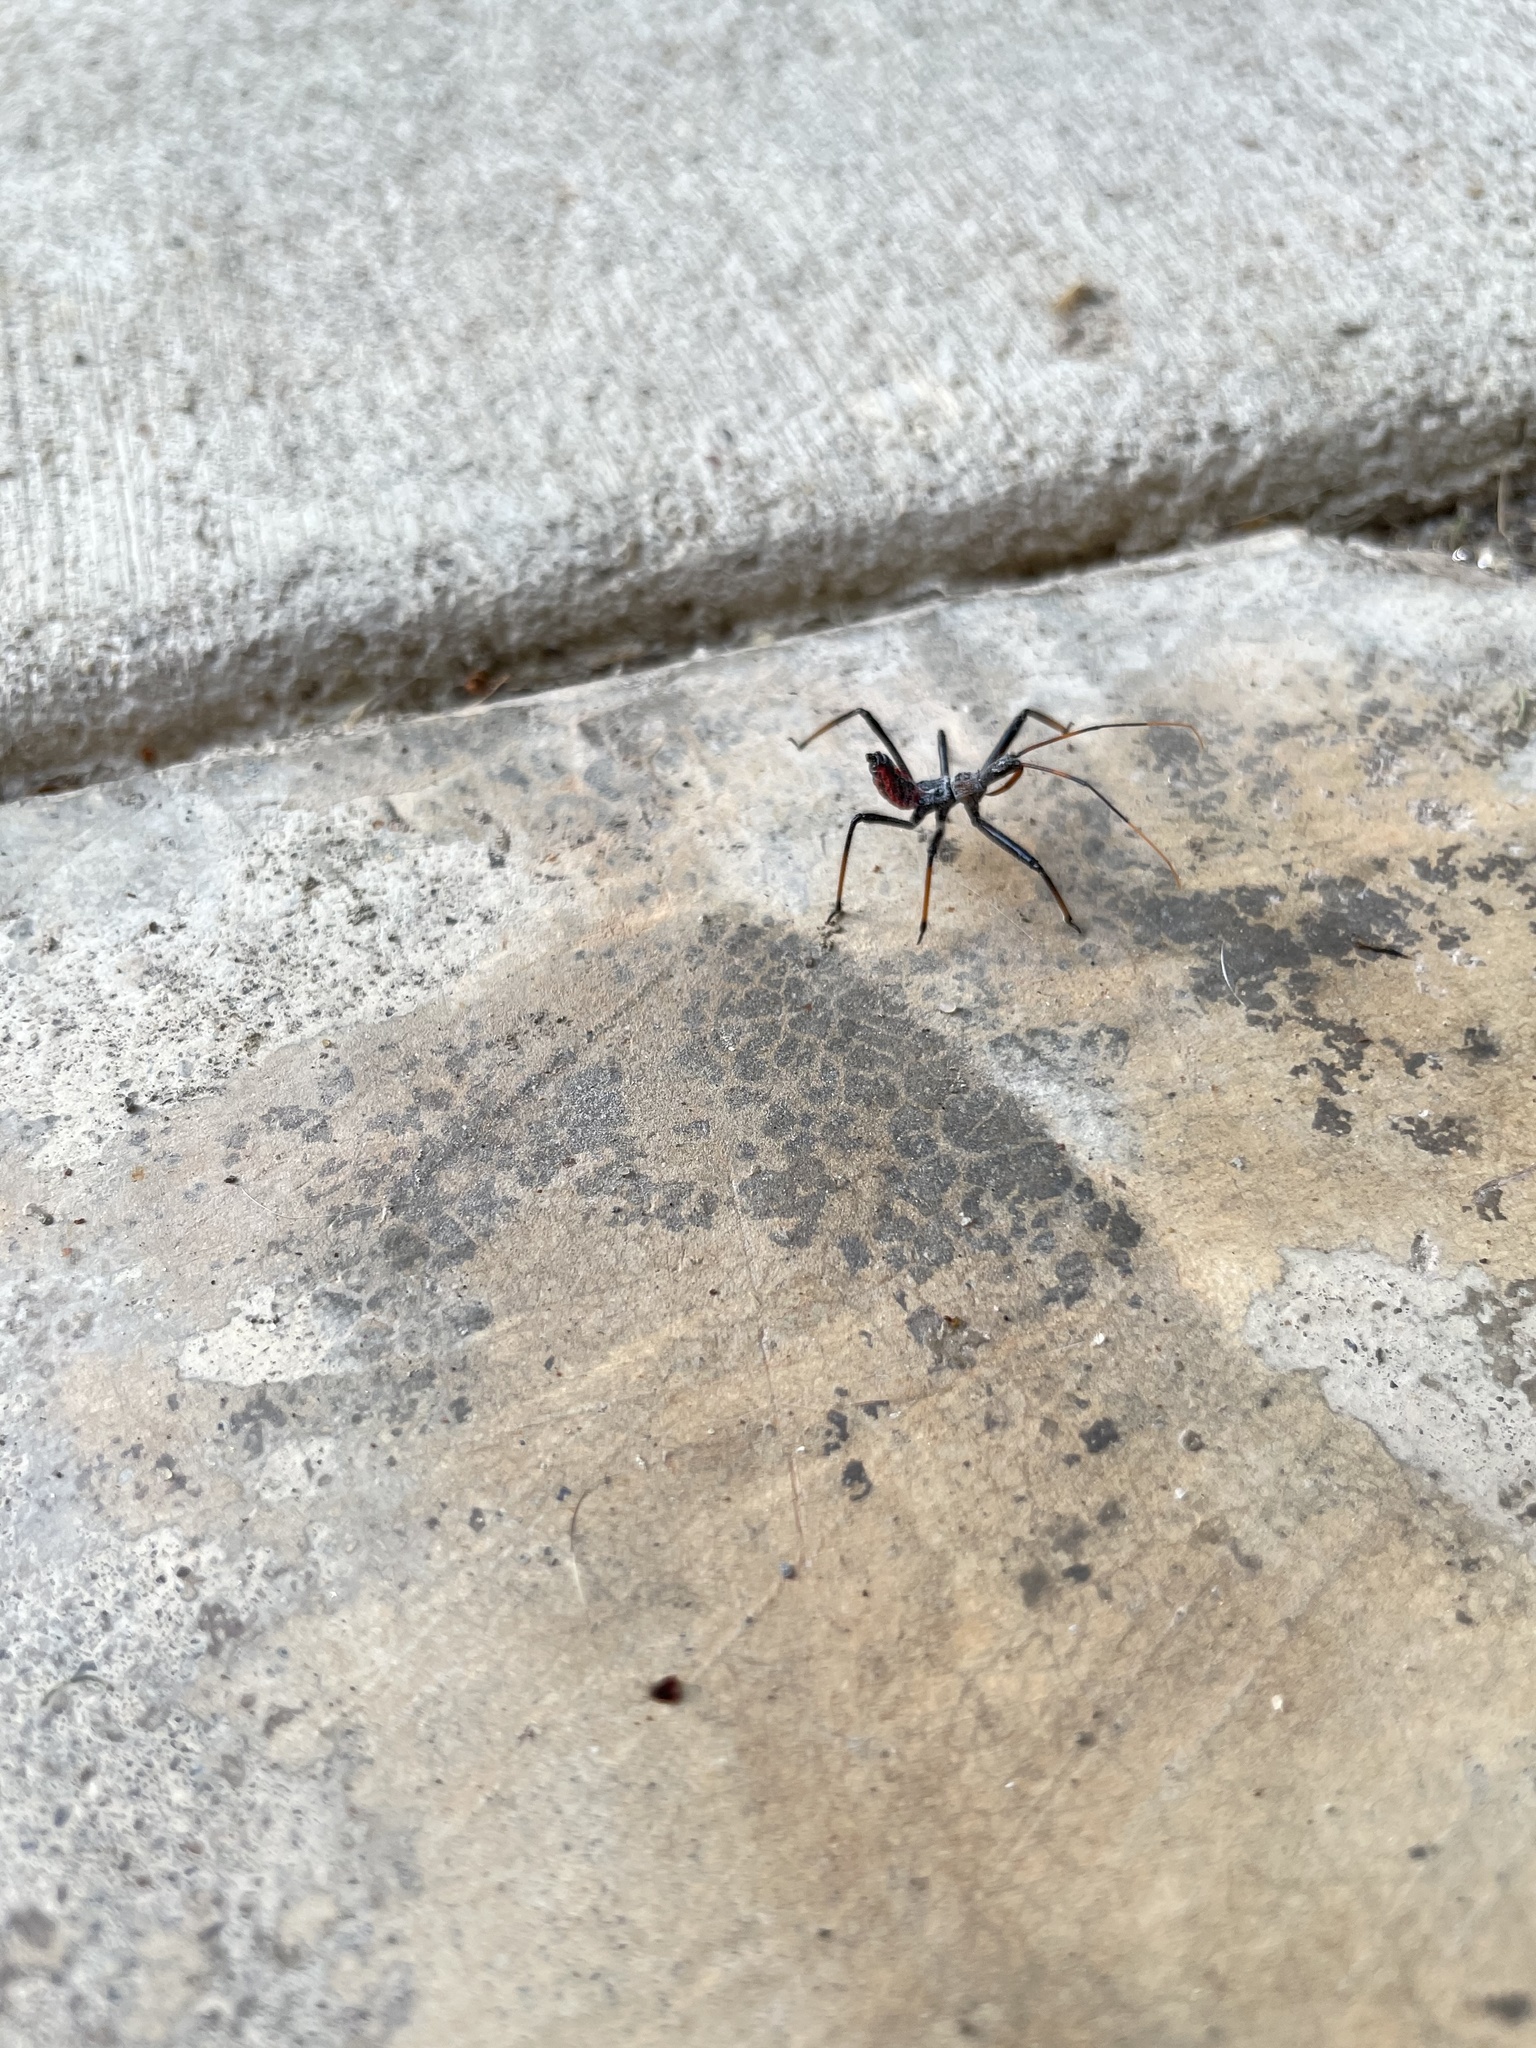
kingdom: Animalia
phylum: Arthropoda
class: Insecta
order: Hemiptera
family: Reduviidae
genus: Arilus
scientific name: Arilus cristatus
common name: North american wheel bug
